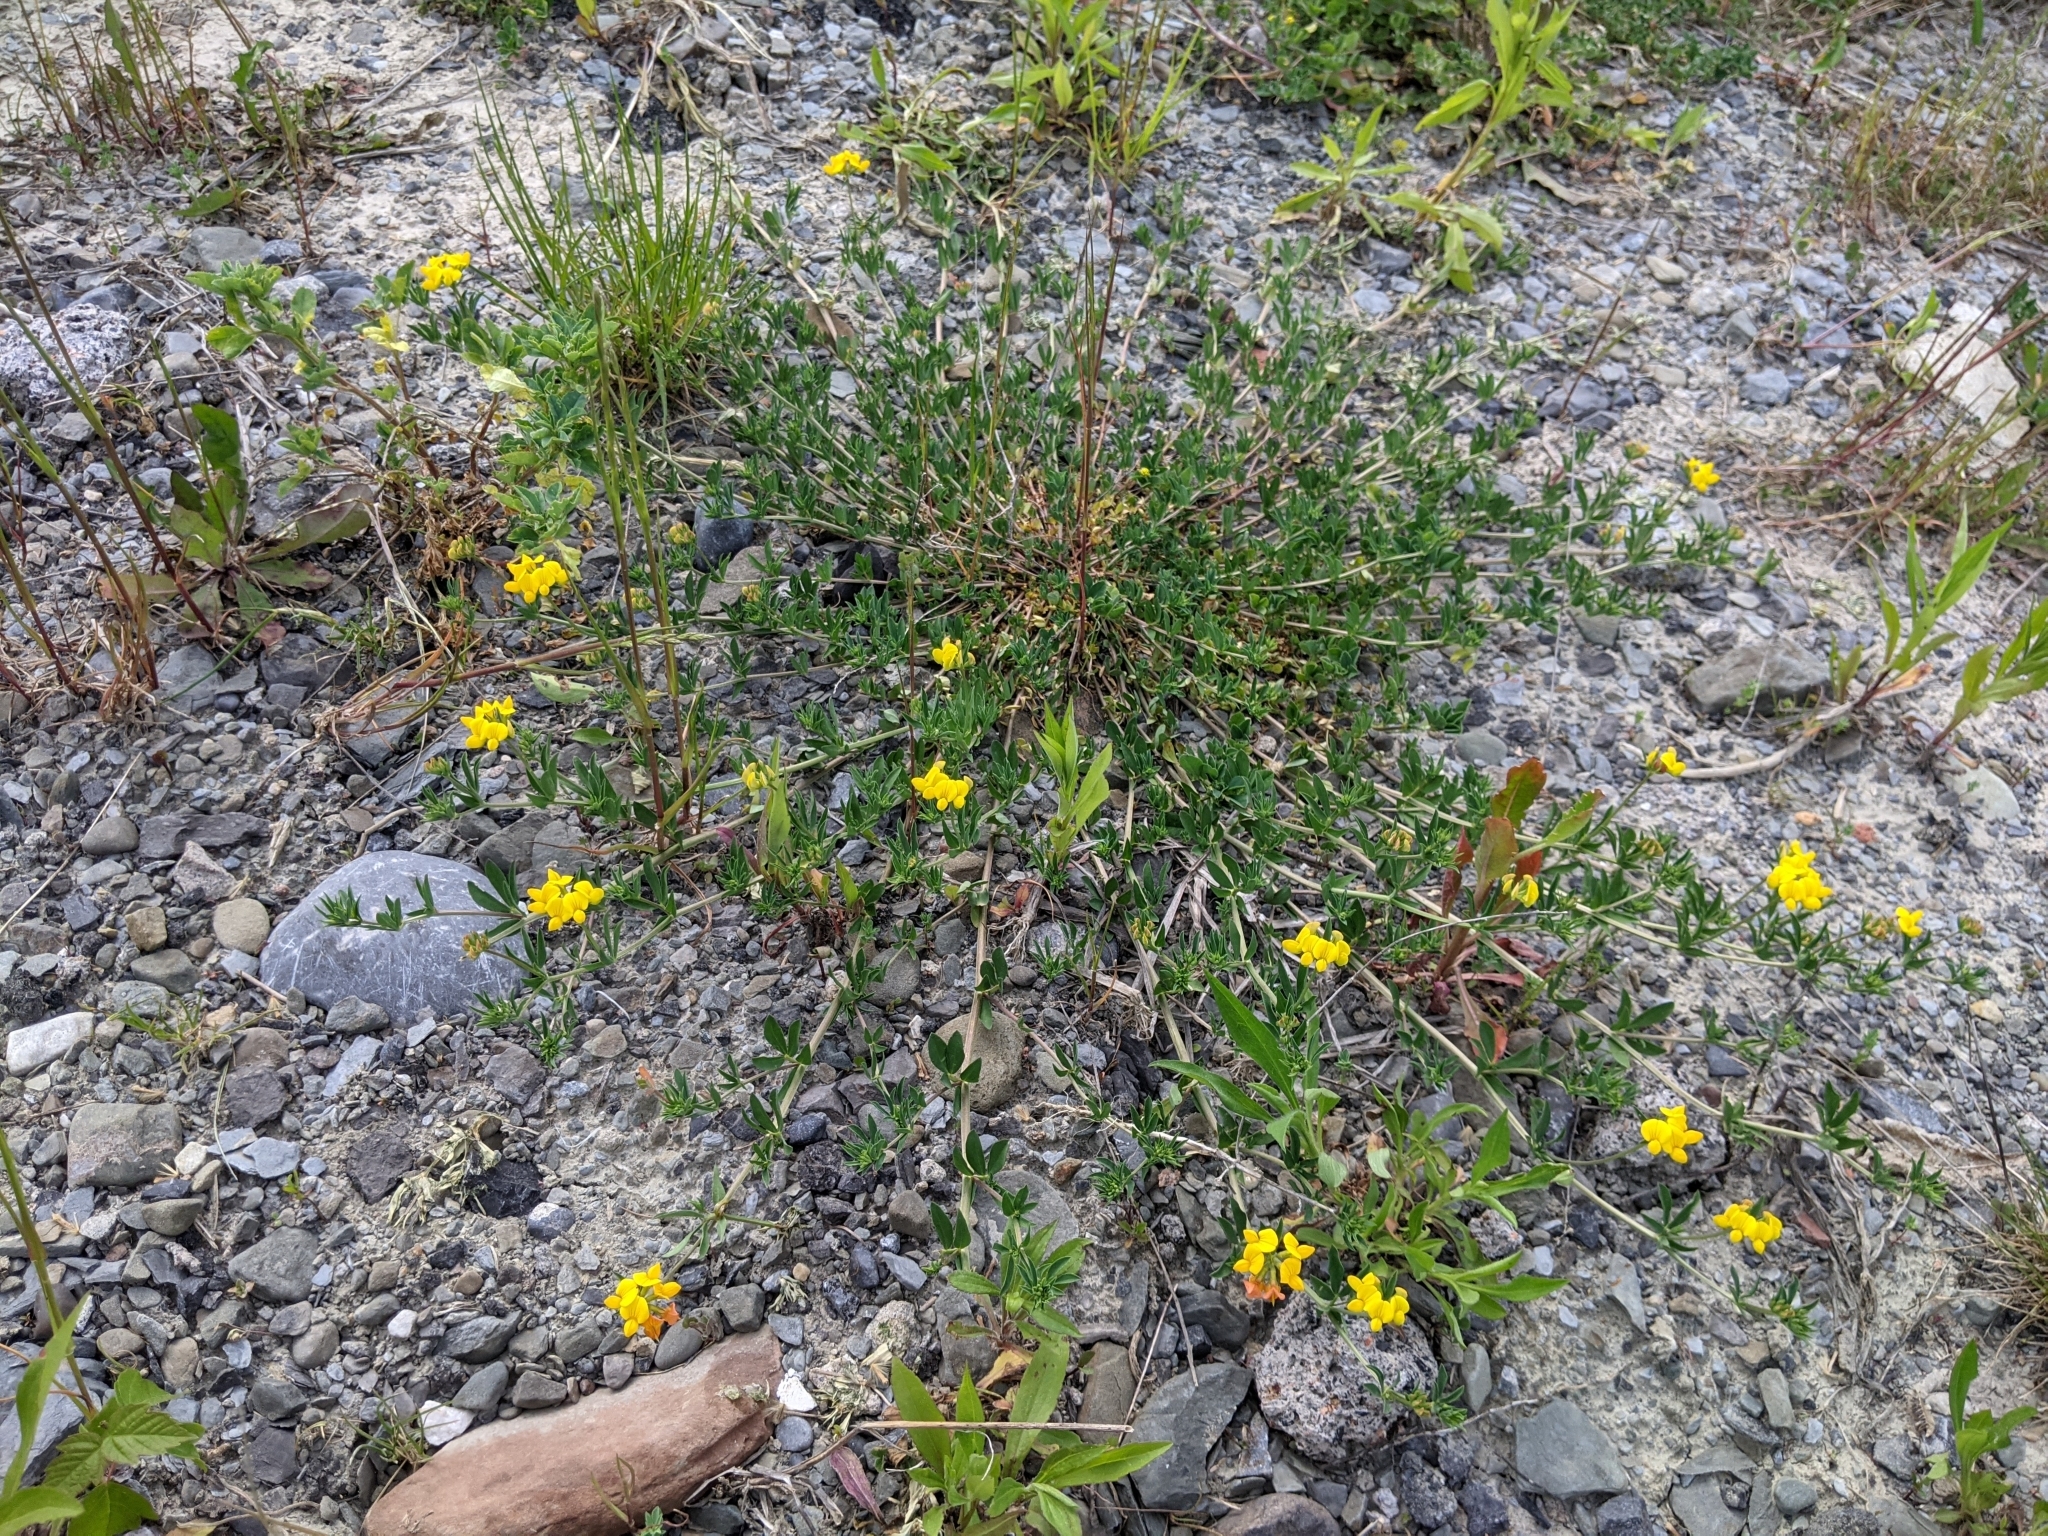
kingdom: Plantae
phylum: Tracheophyta
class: Magnoliopsida
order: Fabales
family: Fabaceae
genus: Lotus
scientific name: Lotus corniculatus
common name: Common bird's-foot-trefoil
